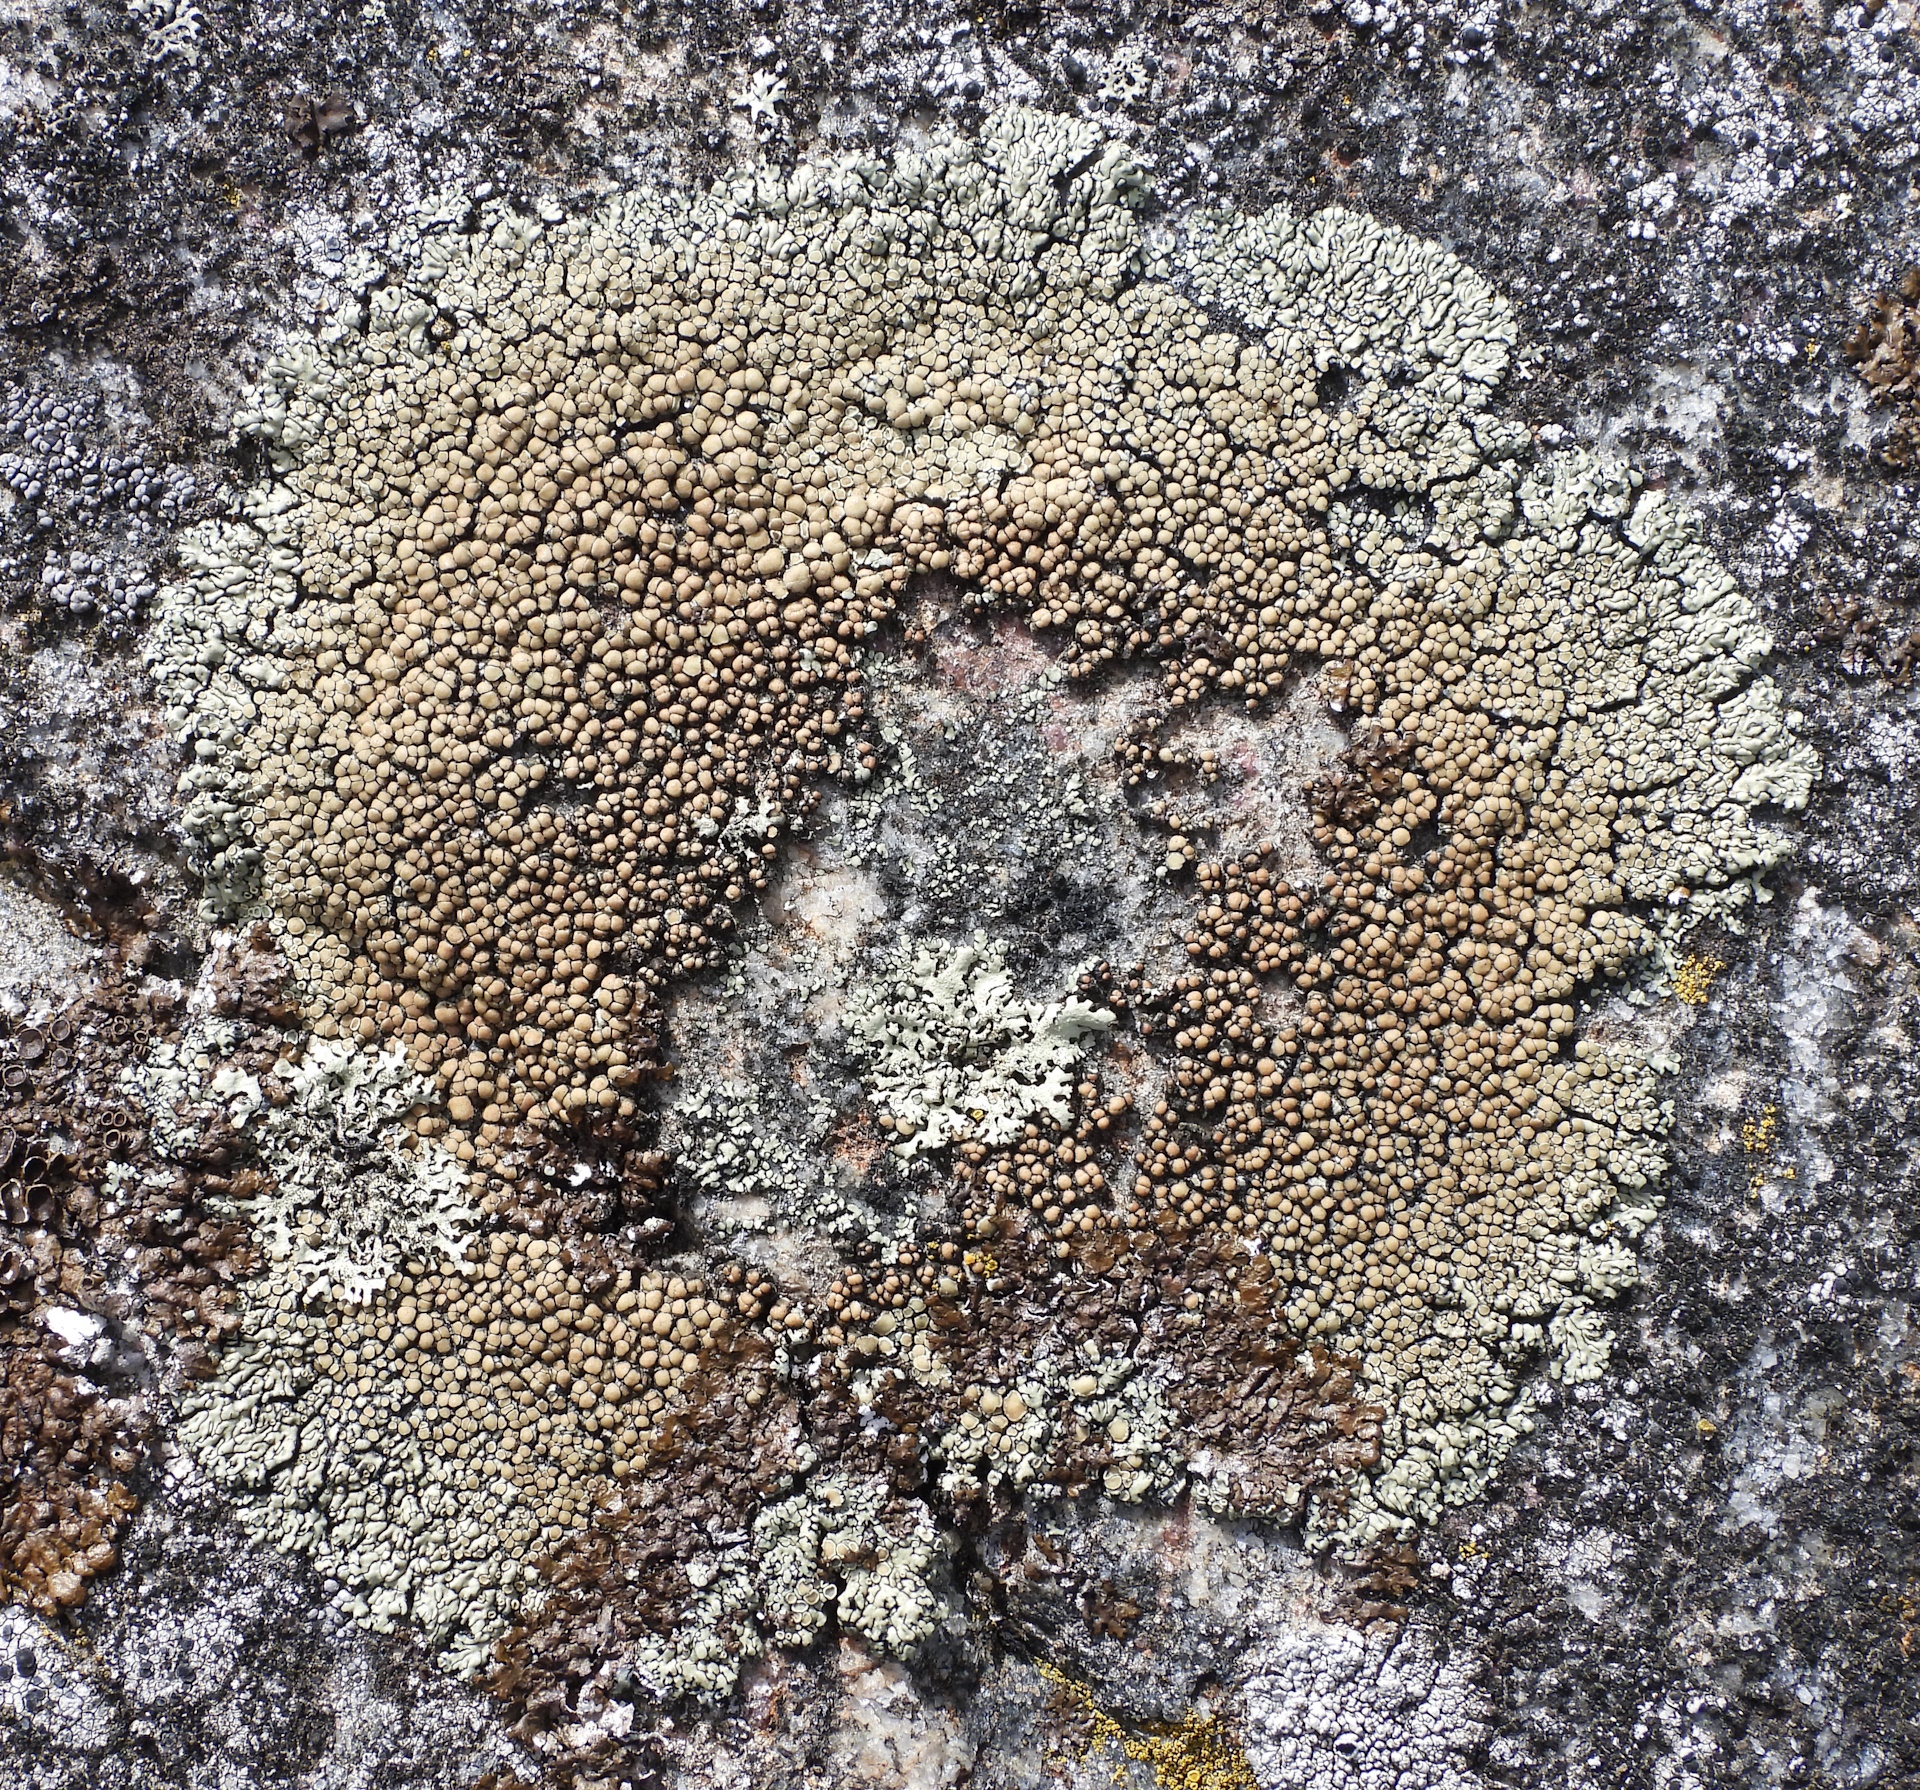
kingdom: Fungi
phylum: Ascomycota
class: Lecanoromycetes
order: Lecanorales
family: Lecanoraceae
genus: Protoparmeliopsis
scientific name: Protoparmeliopsis muralis
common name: Stonewall rim lichen
